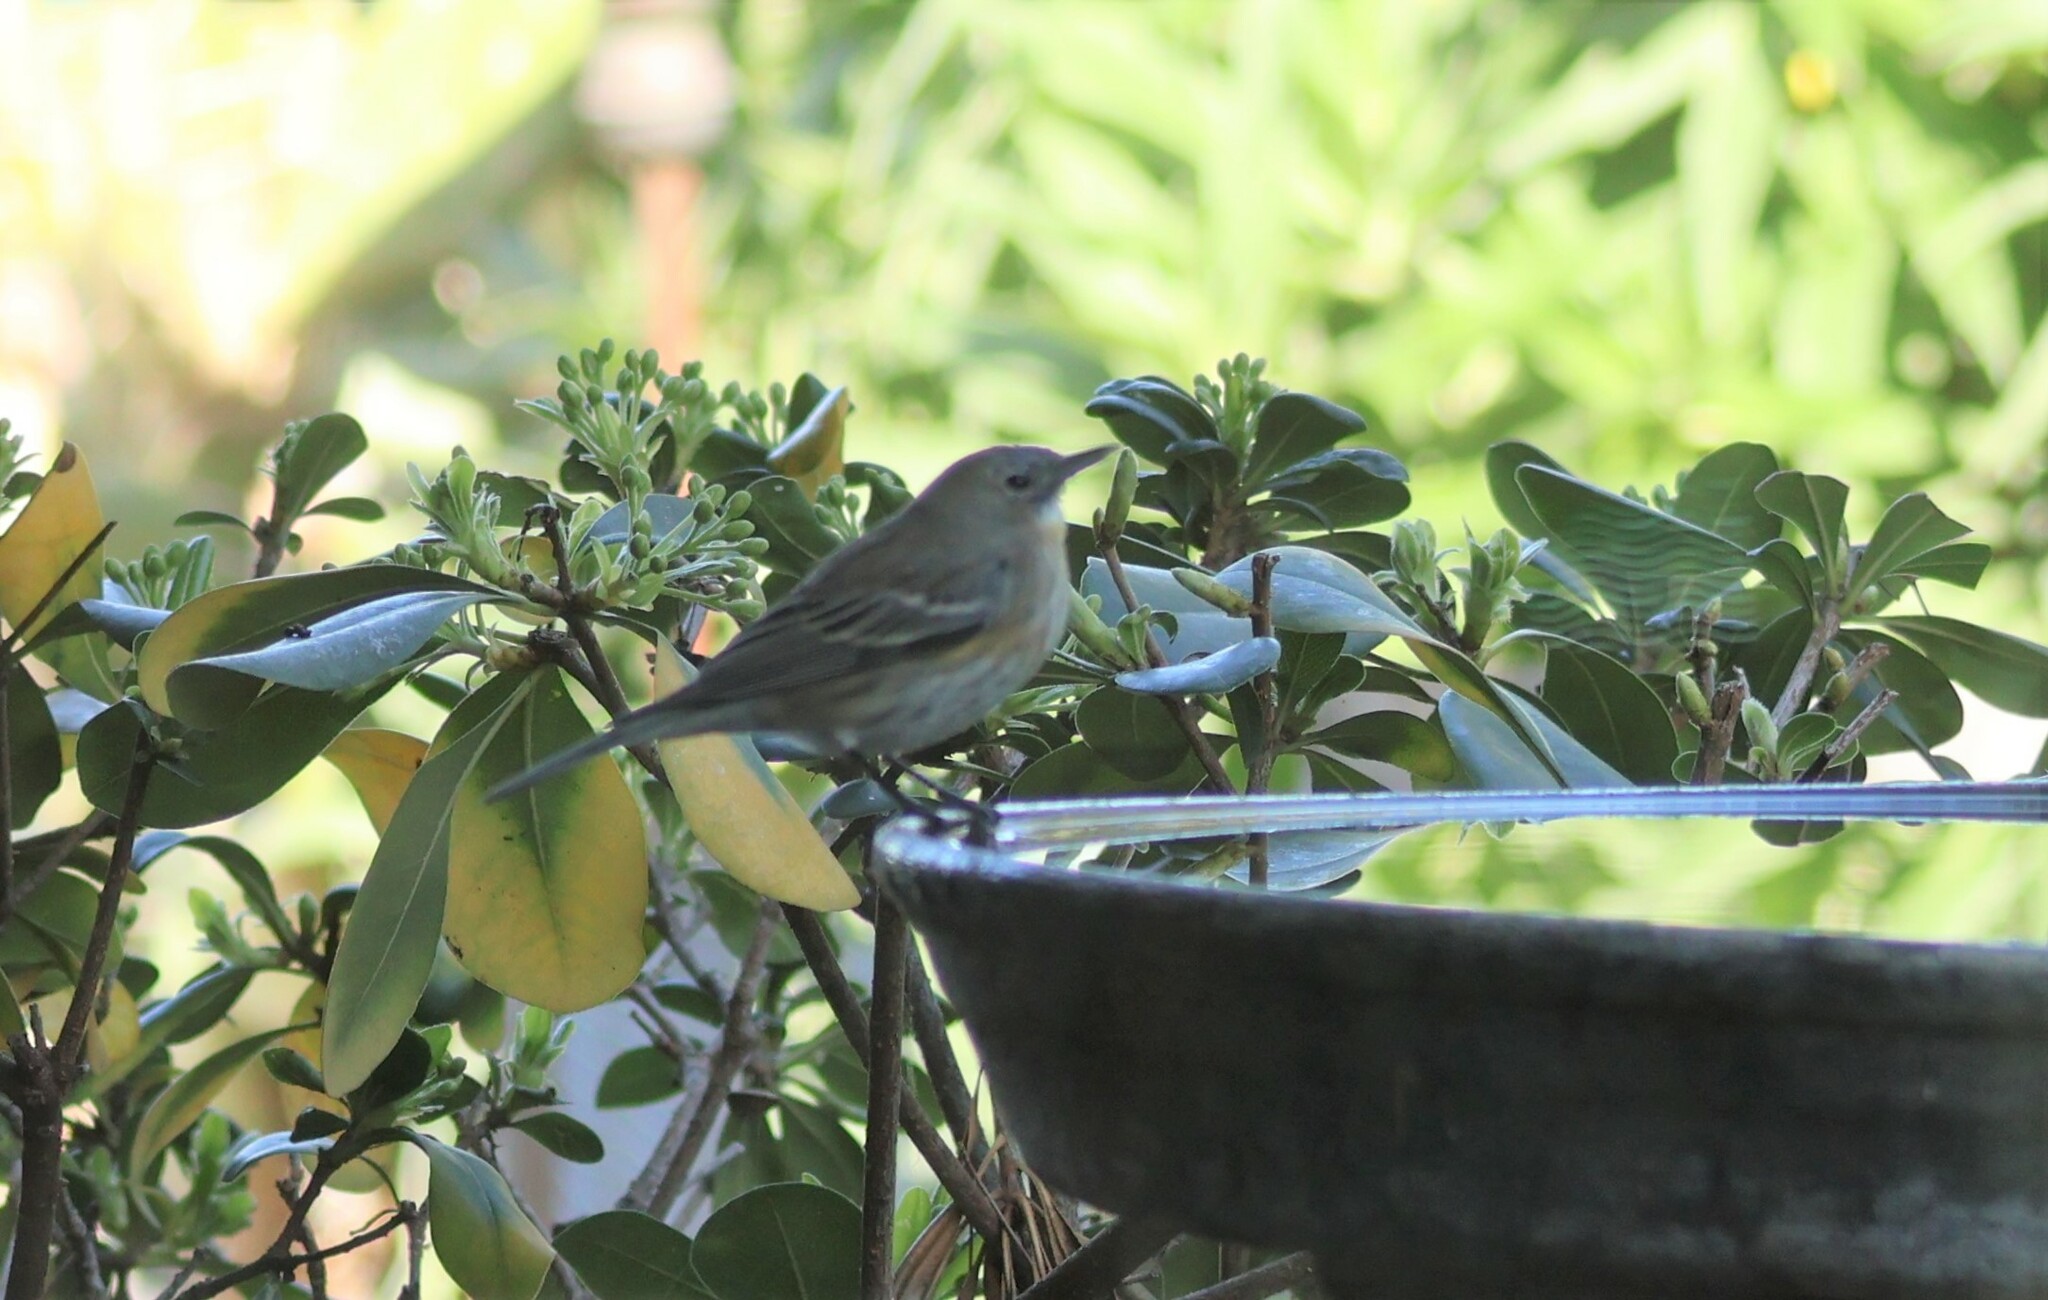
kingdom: Animalia
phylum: Chordata
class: Aves
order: Passeriformes
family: Parulidae
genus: Setophaga
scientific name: Setophaga coronata
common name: Myrtle warbler
